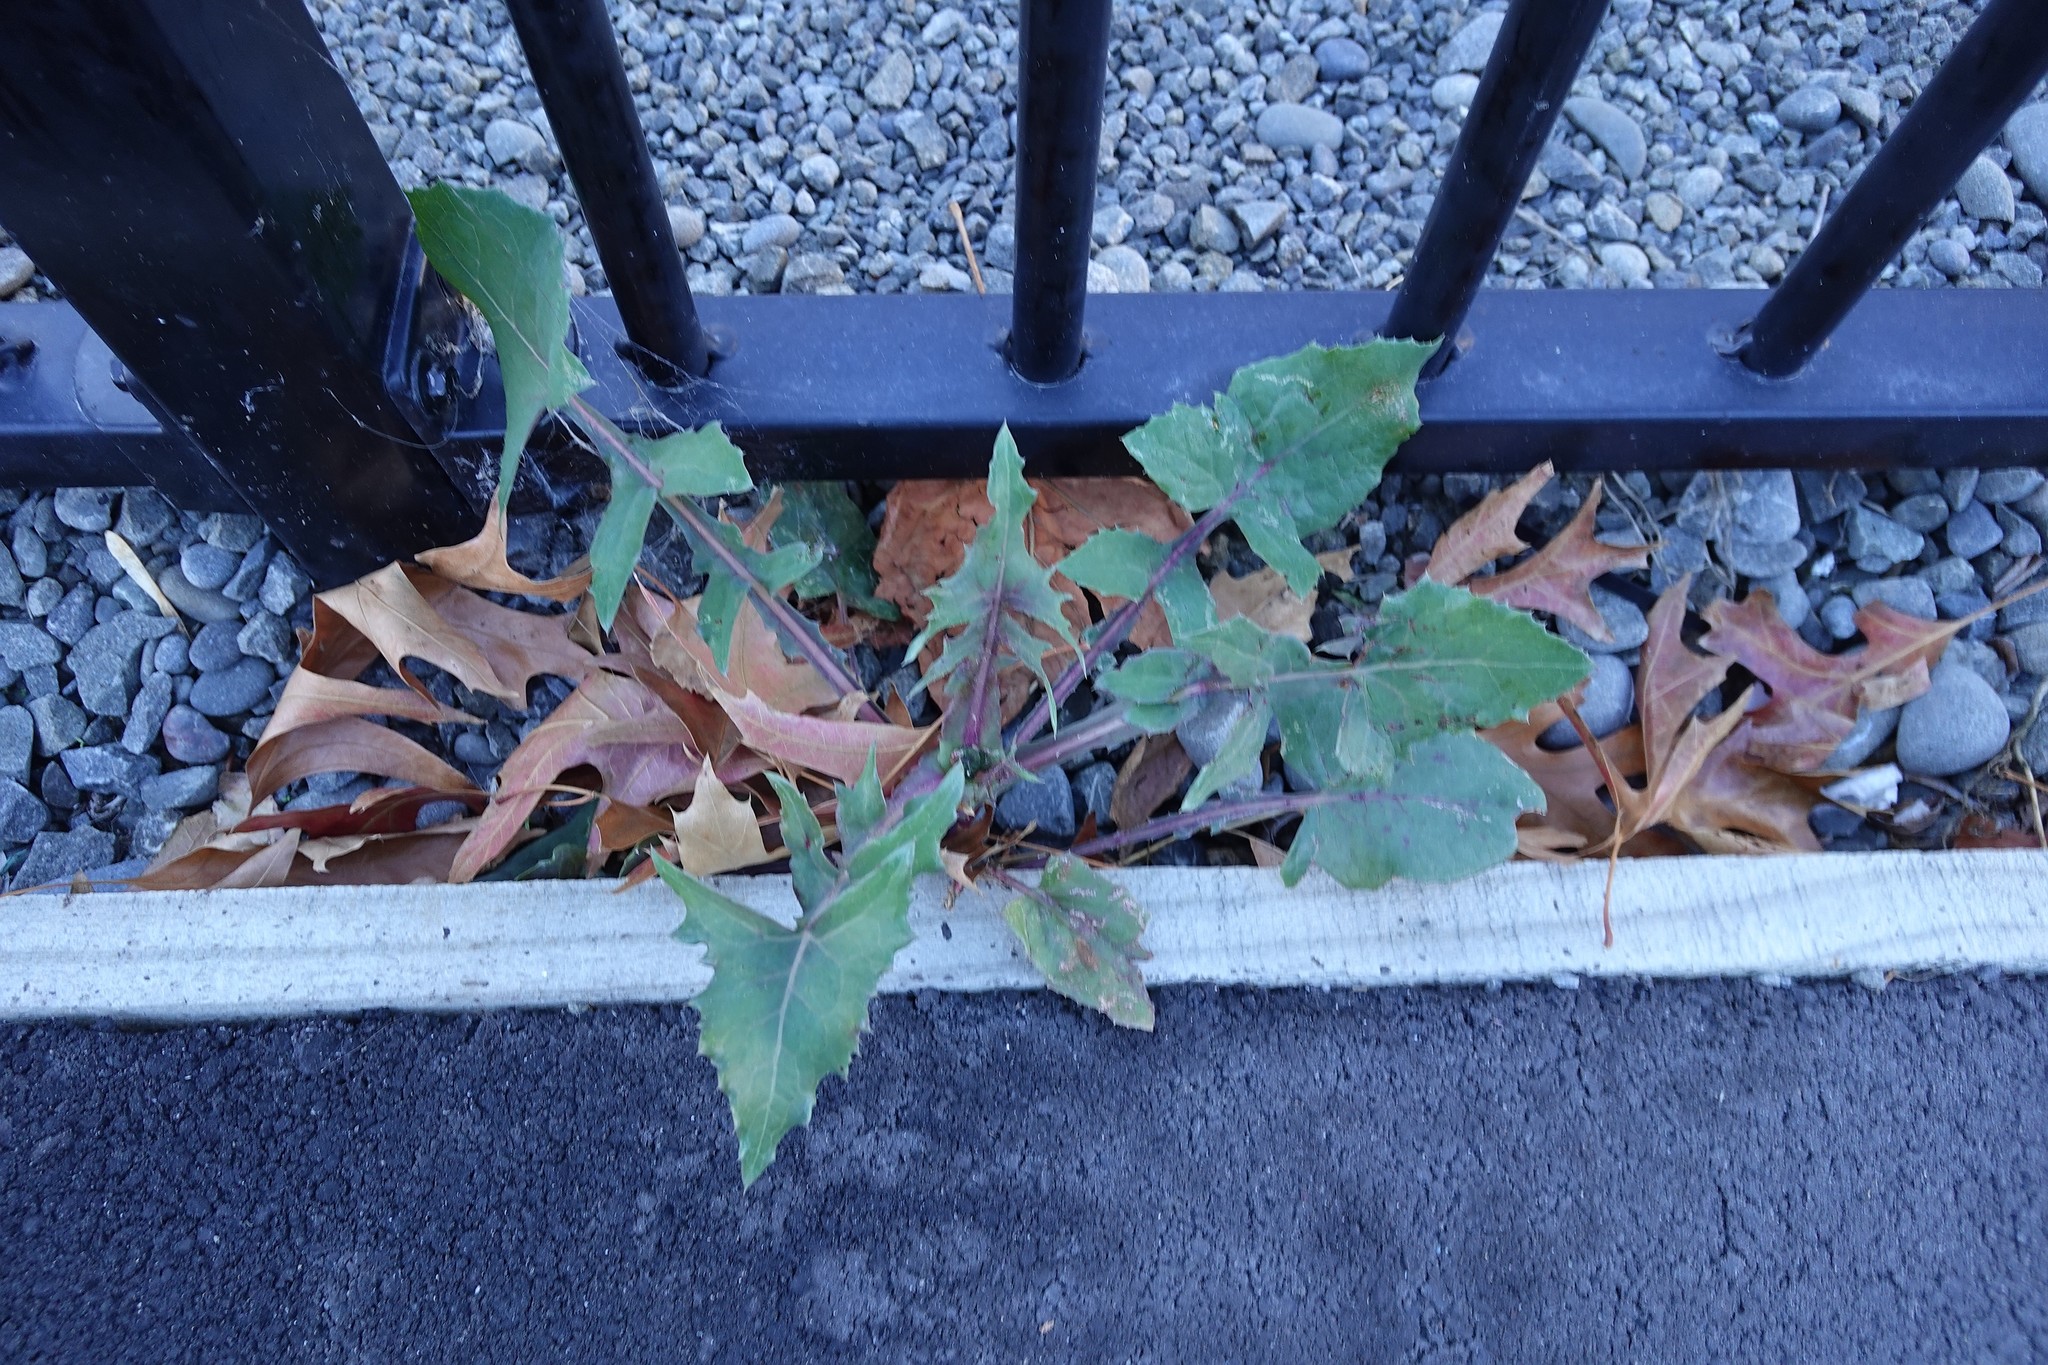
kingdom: Plantae
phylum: Tracheophyta
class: Magnoliopsida
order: Asterales
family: Asteraceae
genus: Sonchus
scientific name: Sonchus oleraceus
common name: Common sowthistle
